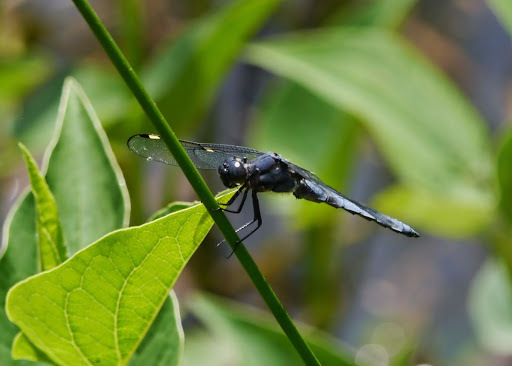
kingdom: Animalia
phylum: Arthropoda
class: Insecta
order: Odonata
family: Libellulidae
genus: Libellula
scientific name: Libellula cyanea
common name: Spangled skimmer
